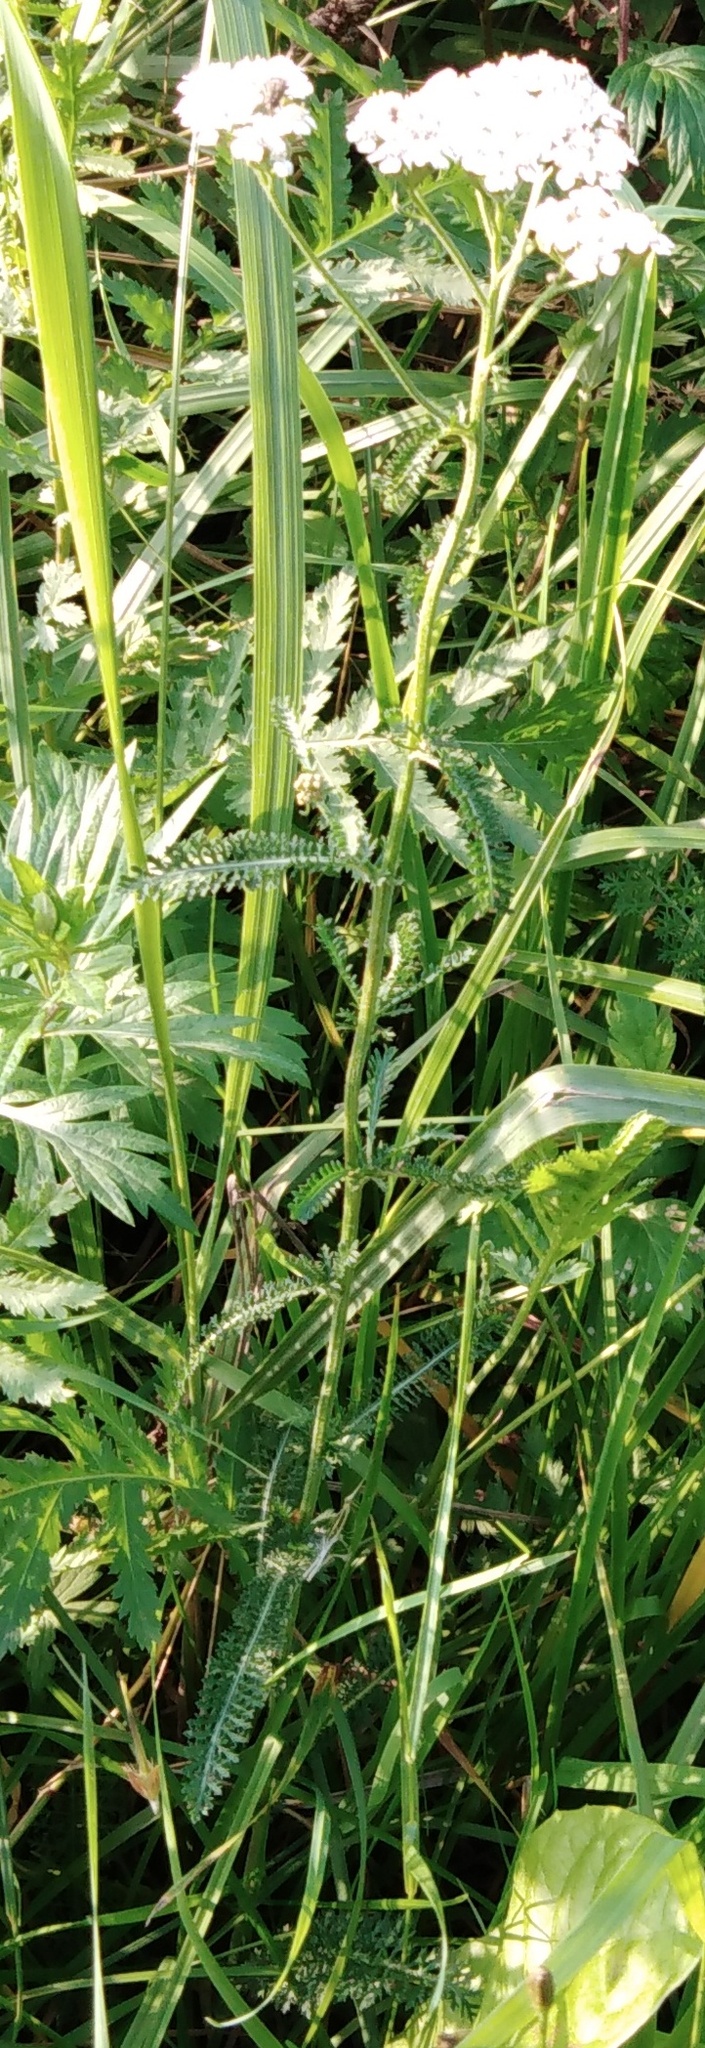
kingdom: Plantae
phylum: Tracheophyta
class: Magnoliopsida
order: Asterales
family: Asteraceae
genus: Achillea
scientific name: Achillea millefolium
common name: Yarrow
